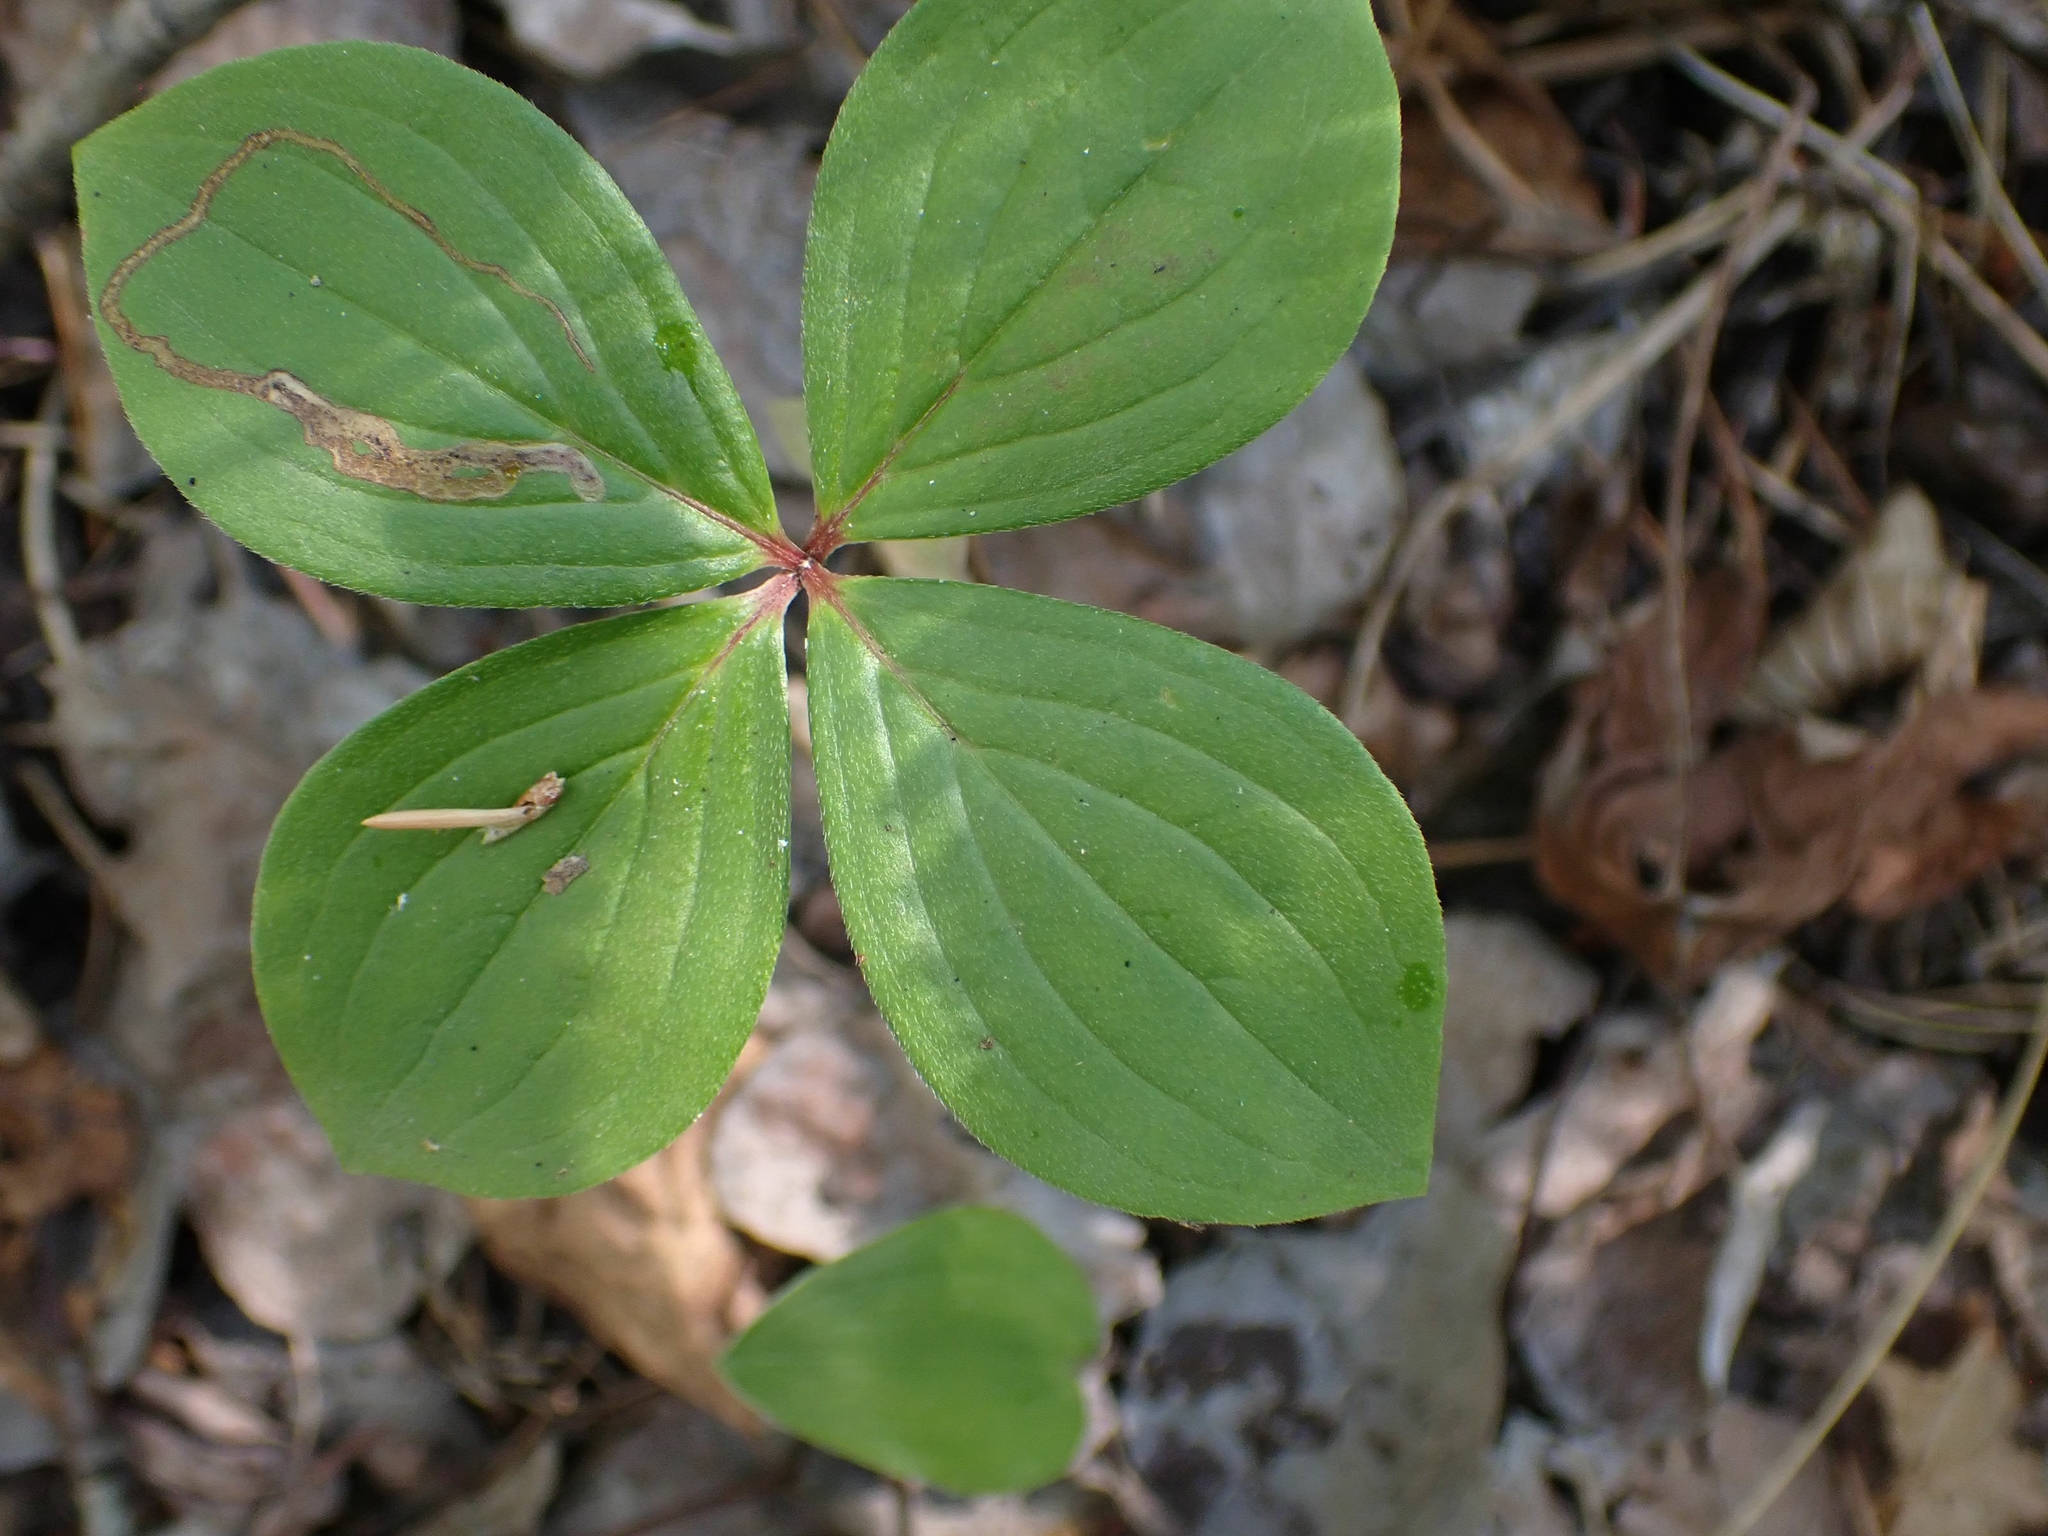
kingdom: Plantae
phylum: Tracheophyta
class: Magnoliopsida
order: Cornales
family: Cornaceae
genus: Cornus
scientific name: Cornus canadensis
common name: Creeping dogwood
